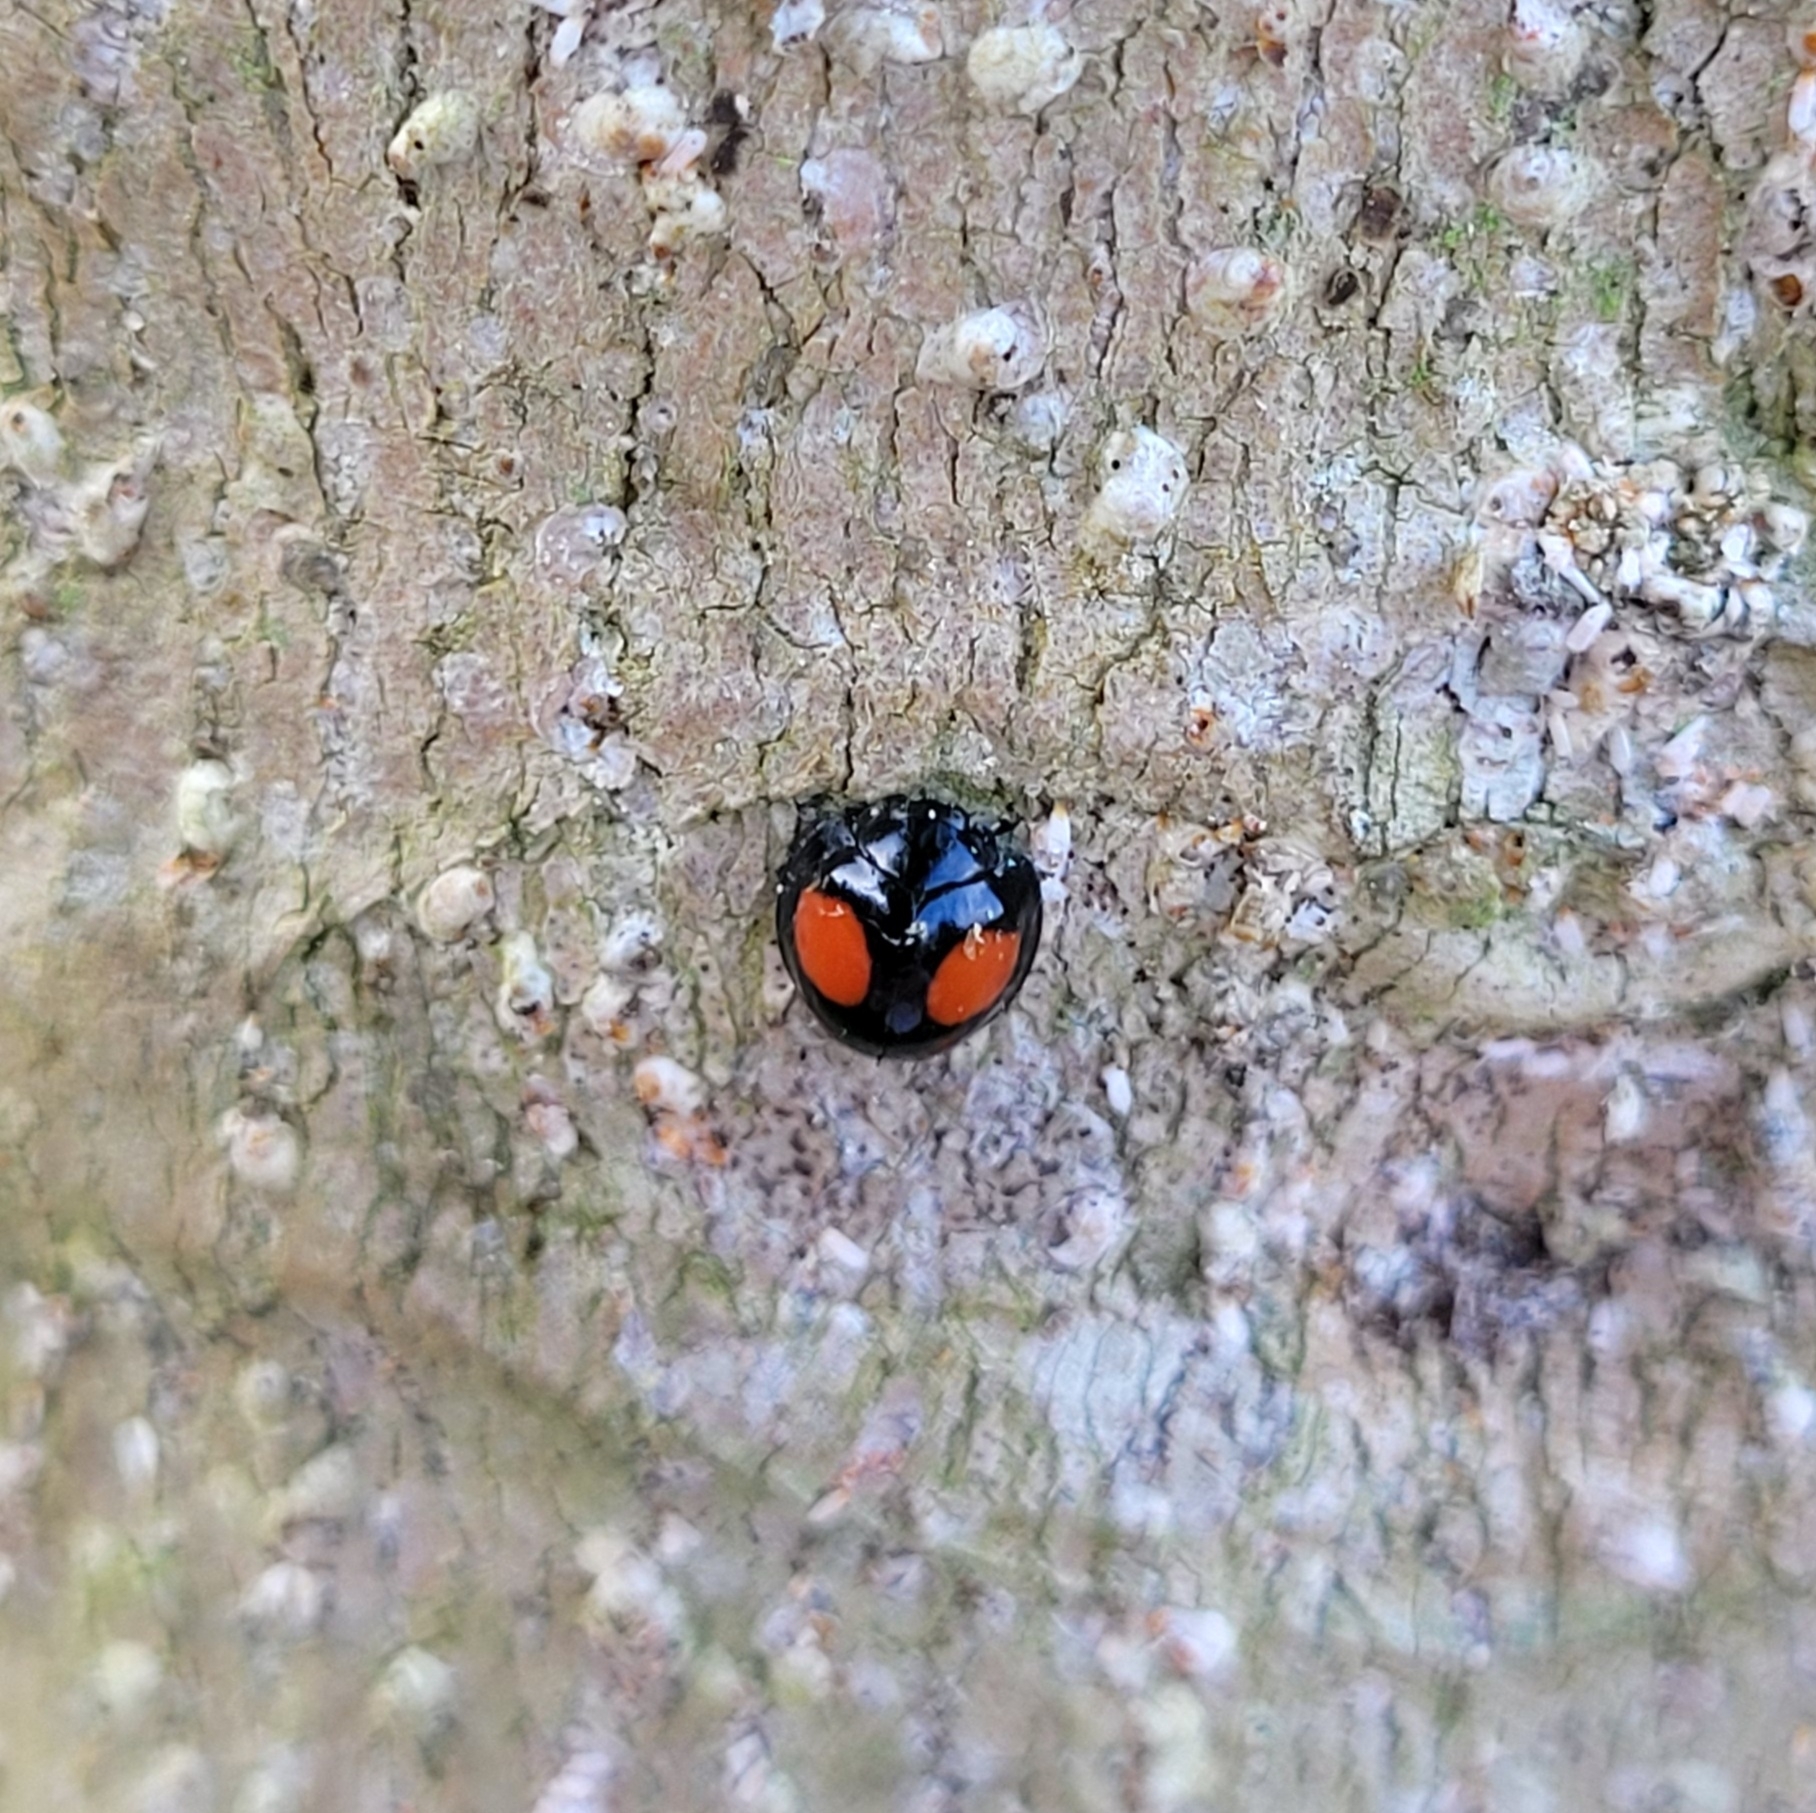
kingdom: Animalia
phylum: Arthropoda
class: Insecta
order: Coleoptera
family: Coccinellidae
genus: Chilocorus
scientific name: Chilocorus cacti
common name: Cactus lady beetle
